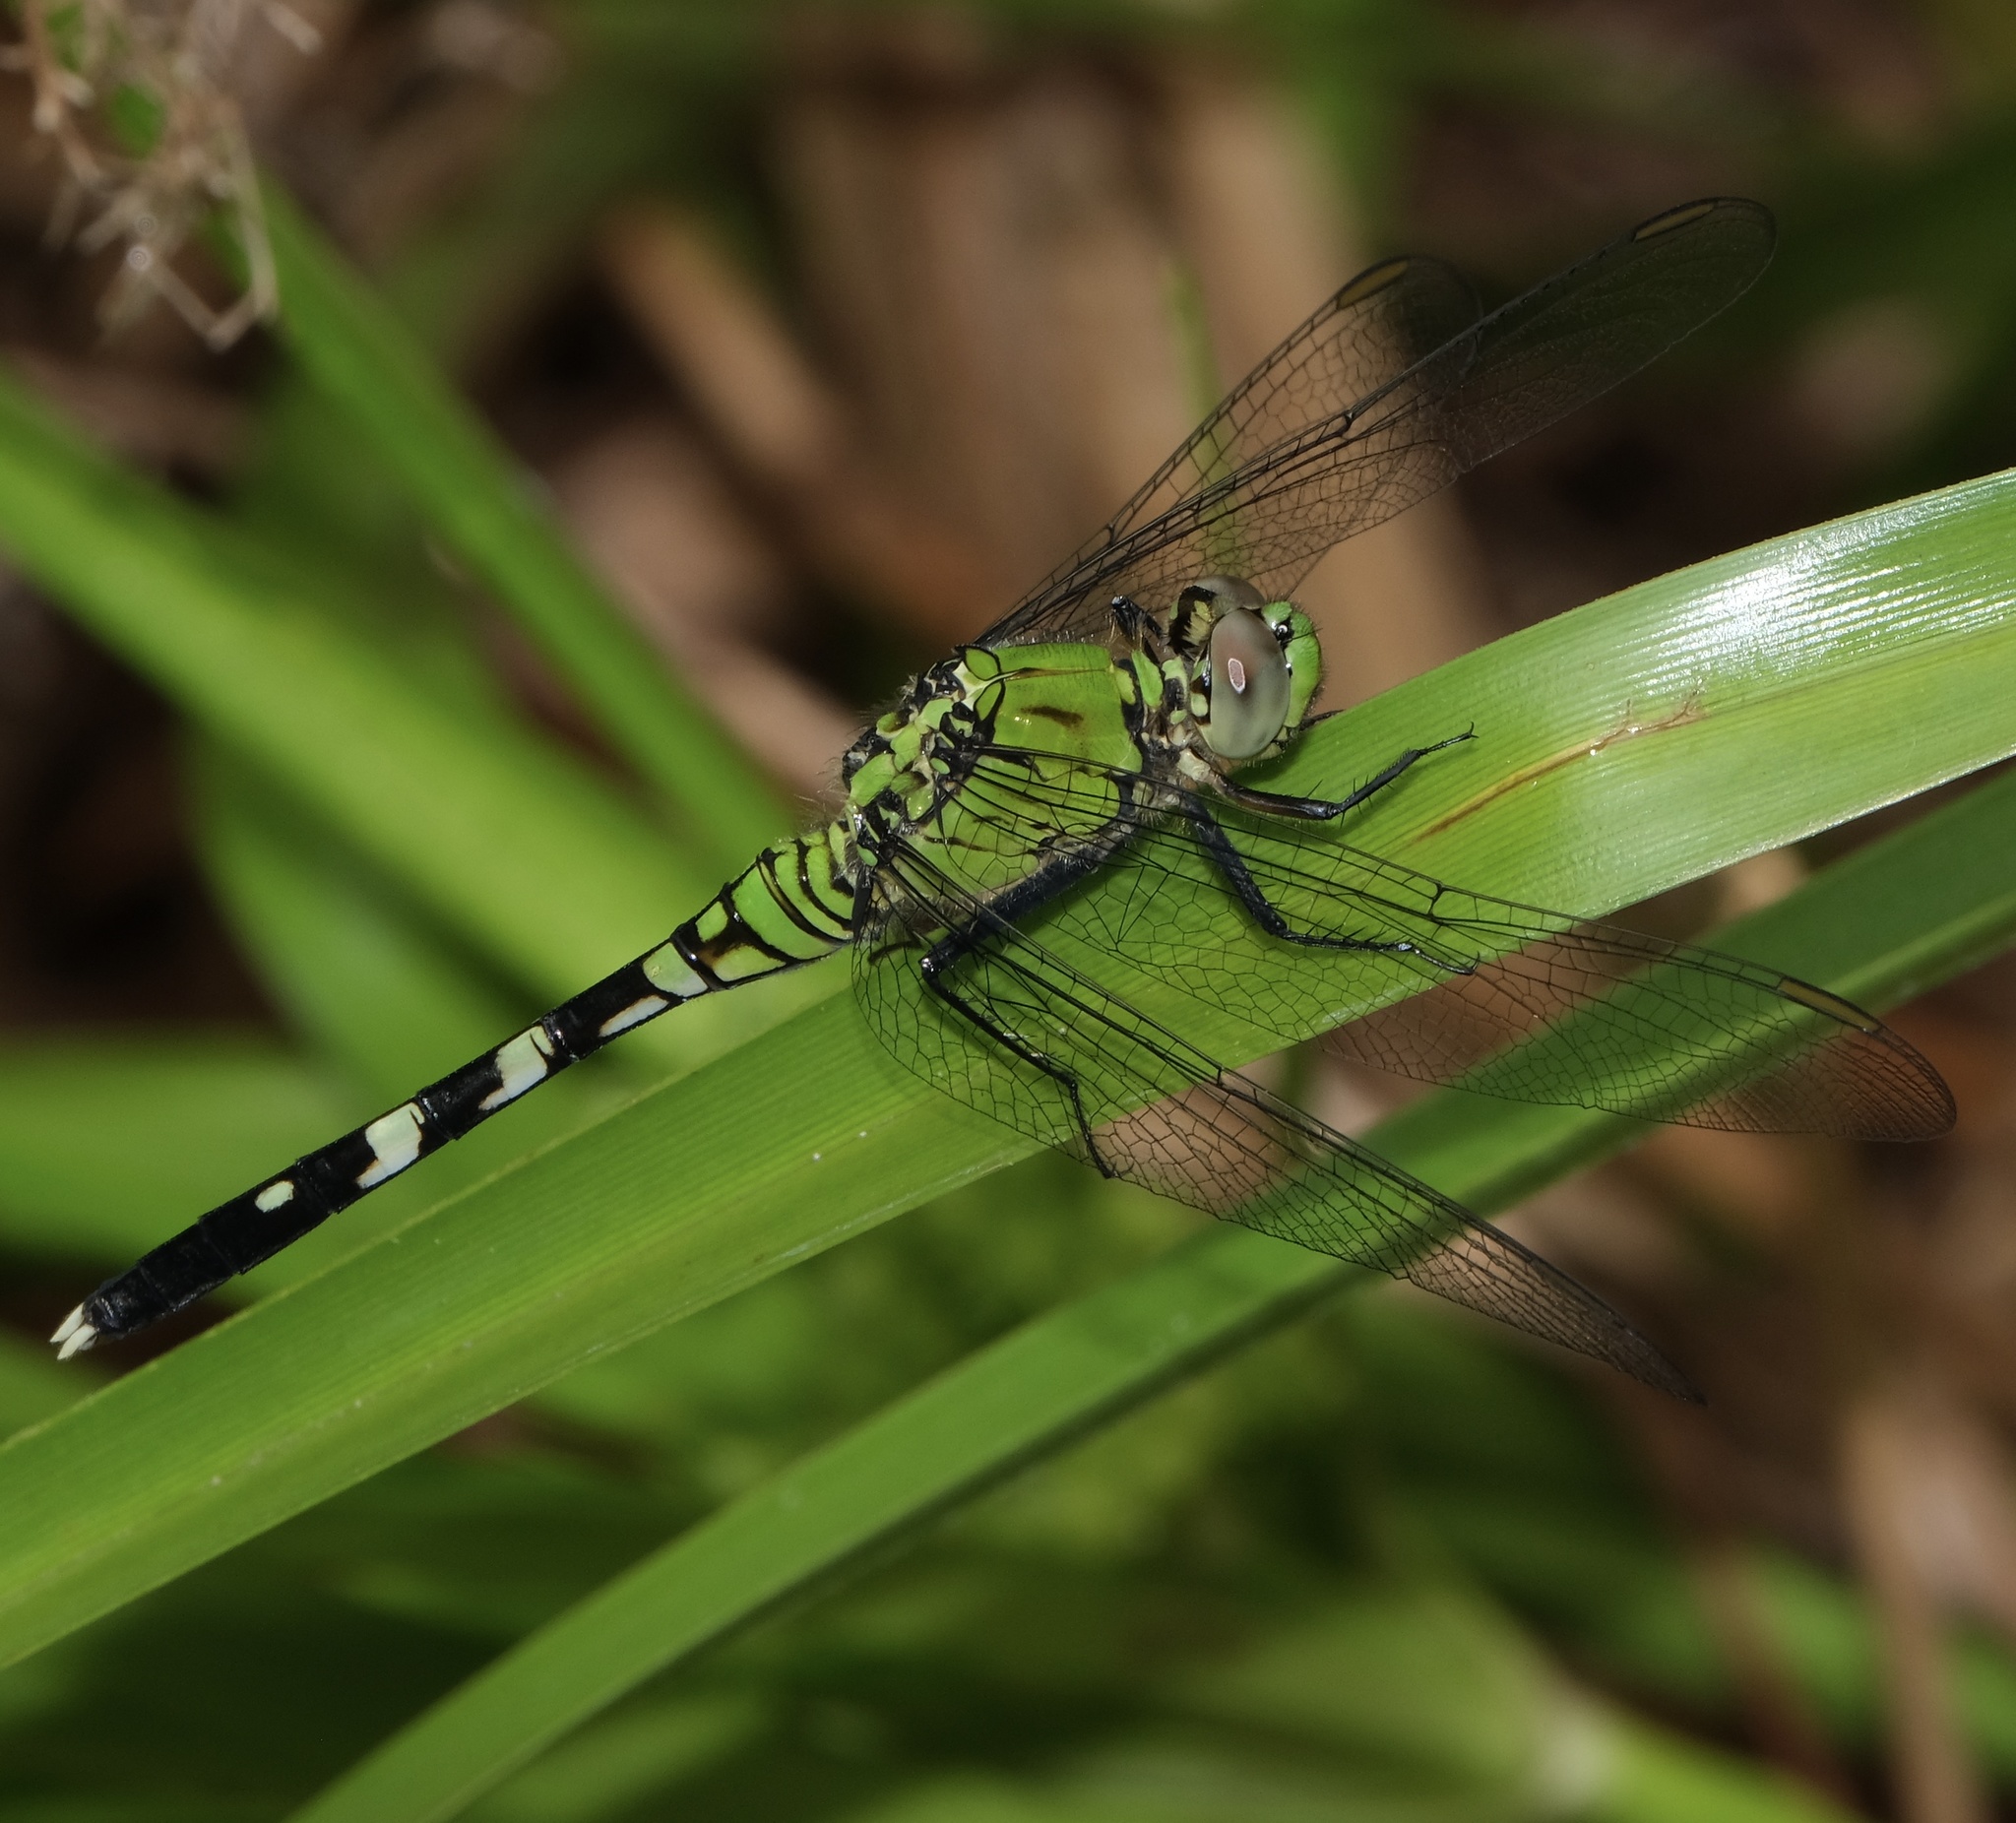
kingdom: Animalia
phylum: Arthropoda
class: Insecta
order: Odonata
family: Libellulidae
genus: Erythemis
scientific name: Erythemis simplicicollis
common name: Eastern pondhawk
